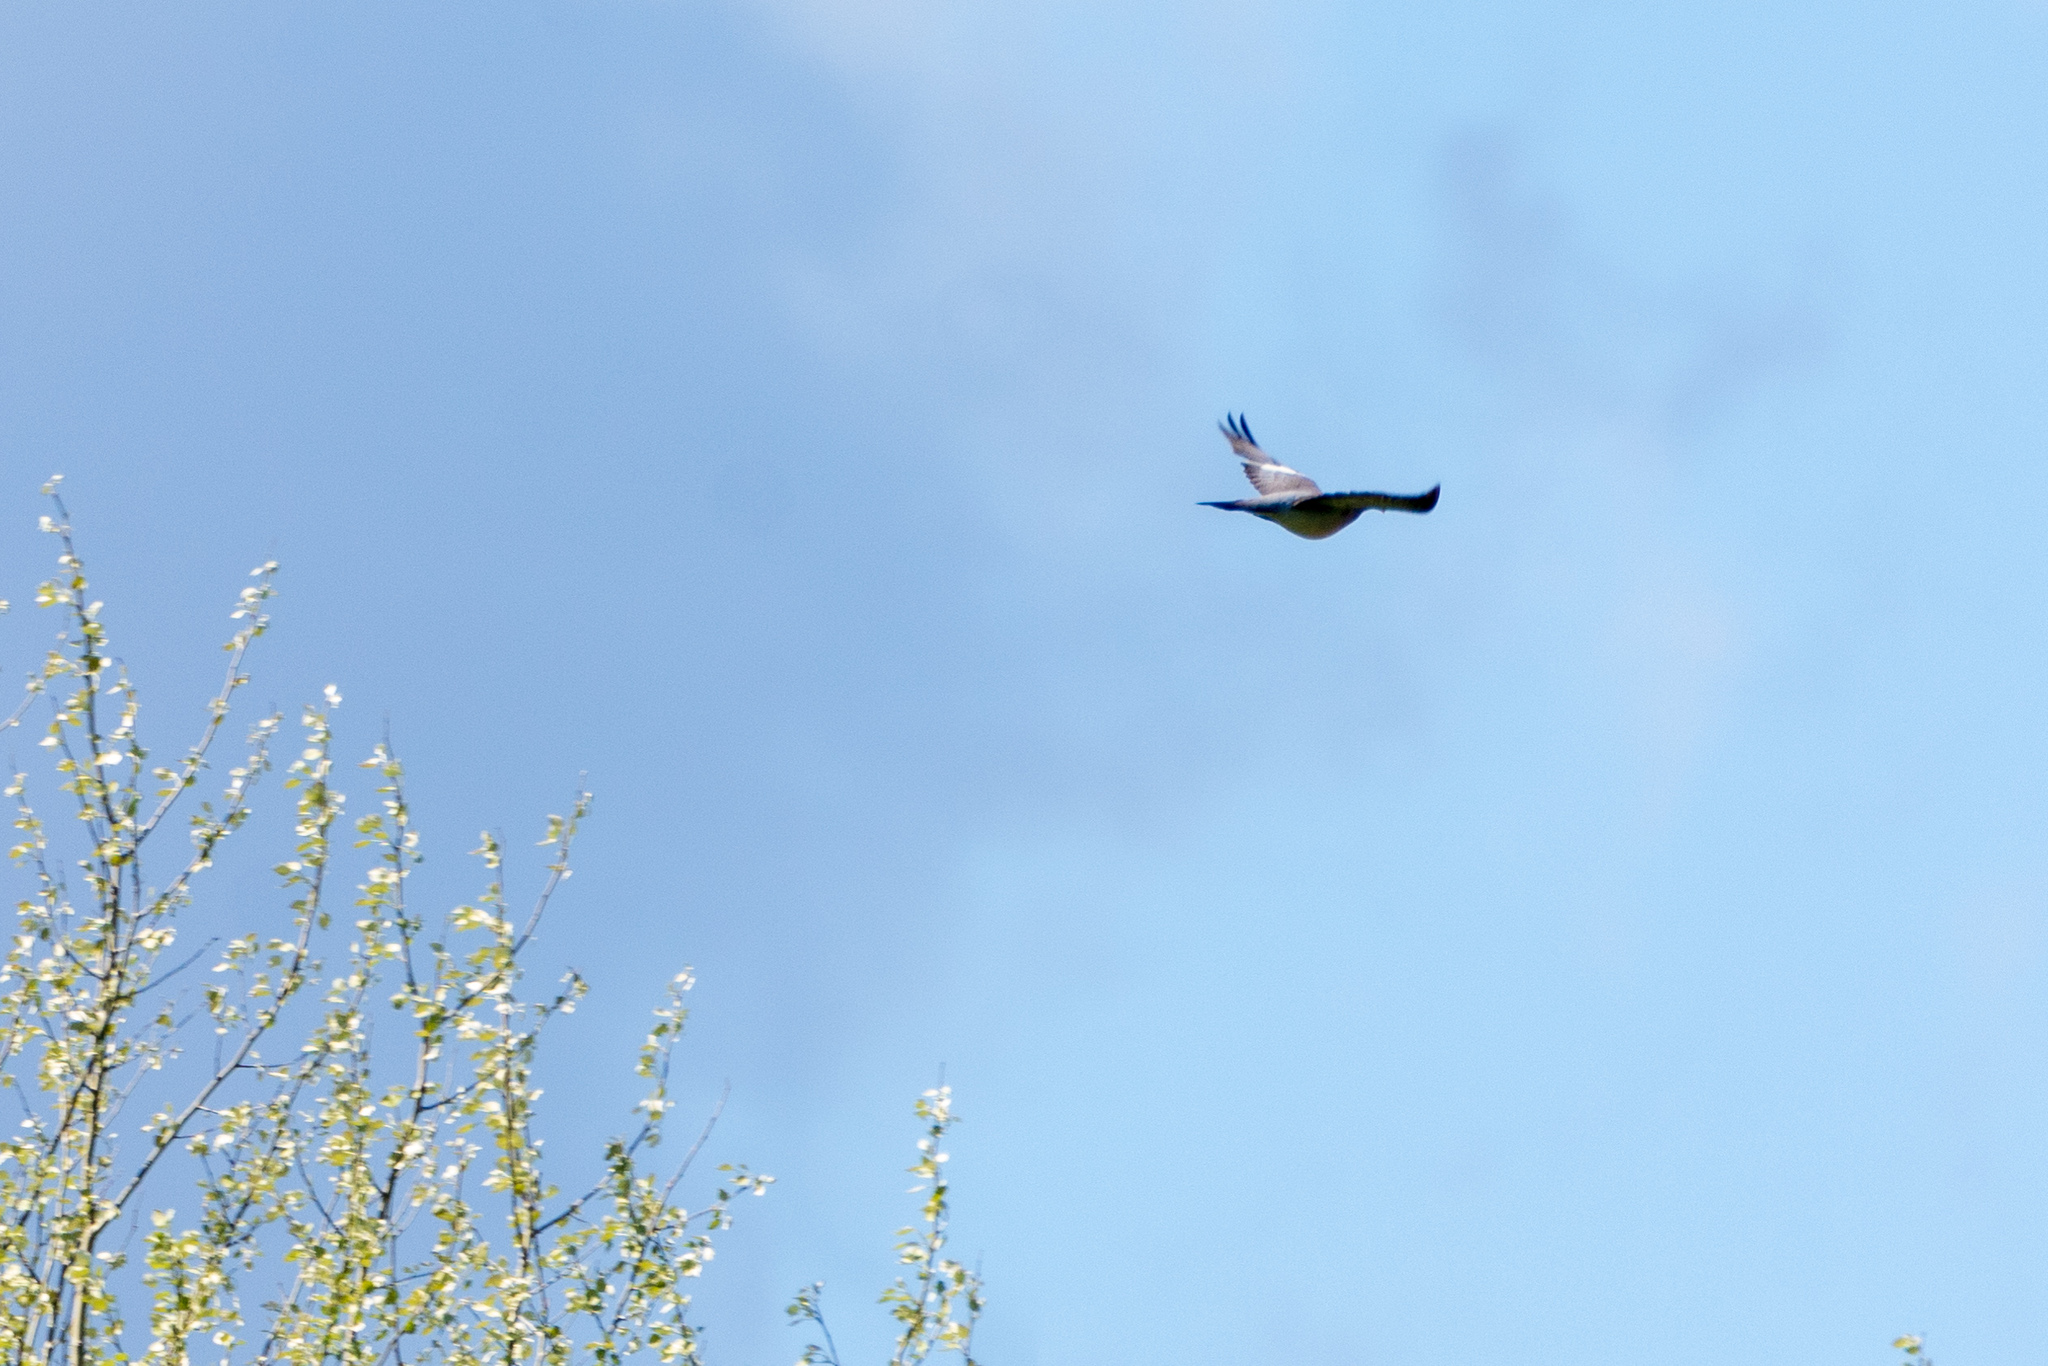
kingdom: Animalia
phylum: Chordata
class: Aves
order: Columbiformes
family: Columbidae
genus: Columba
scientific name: Columba palumbus
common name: Common wood pigeon
